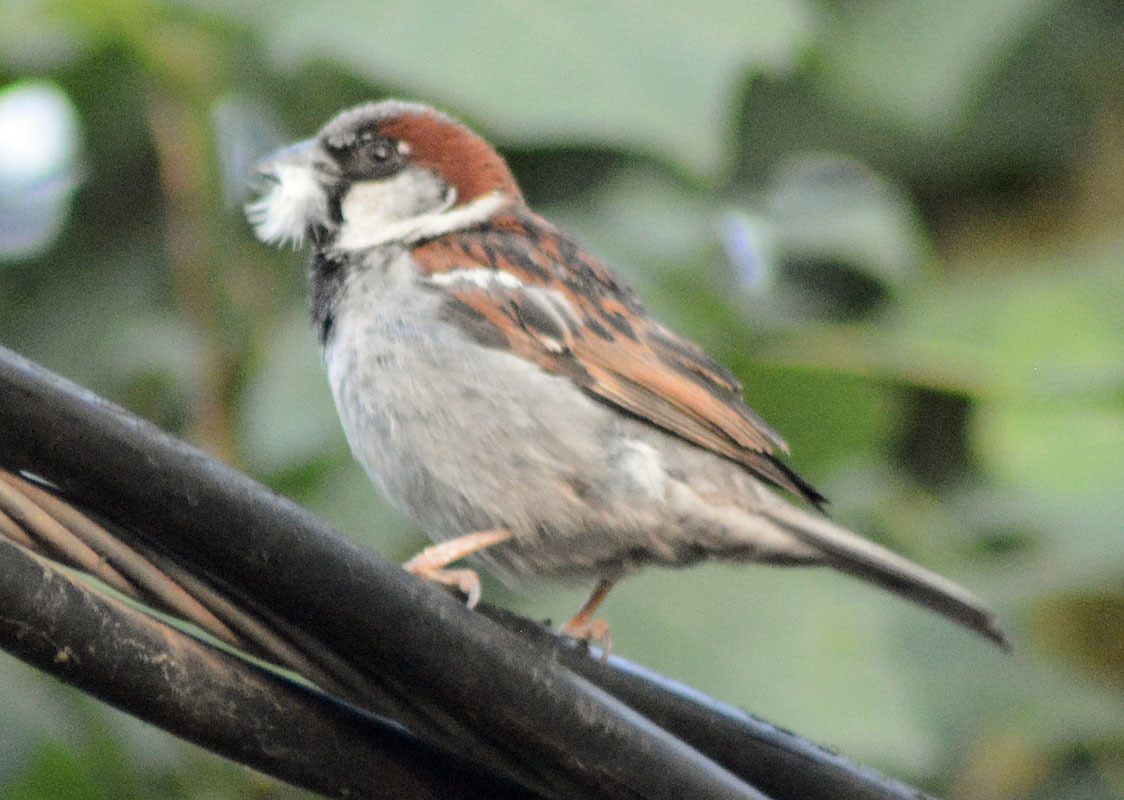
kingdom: Animalia
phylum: Chordata
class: Aves
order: Passeriformes
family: Passeridae
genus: Passer
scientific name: Passer domesticus
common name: House sparrow
